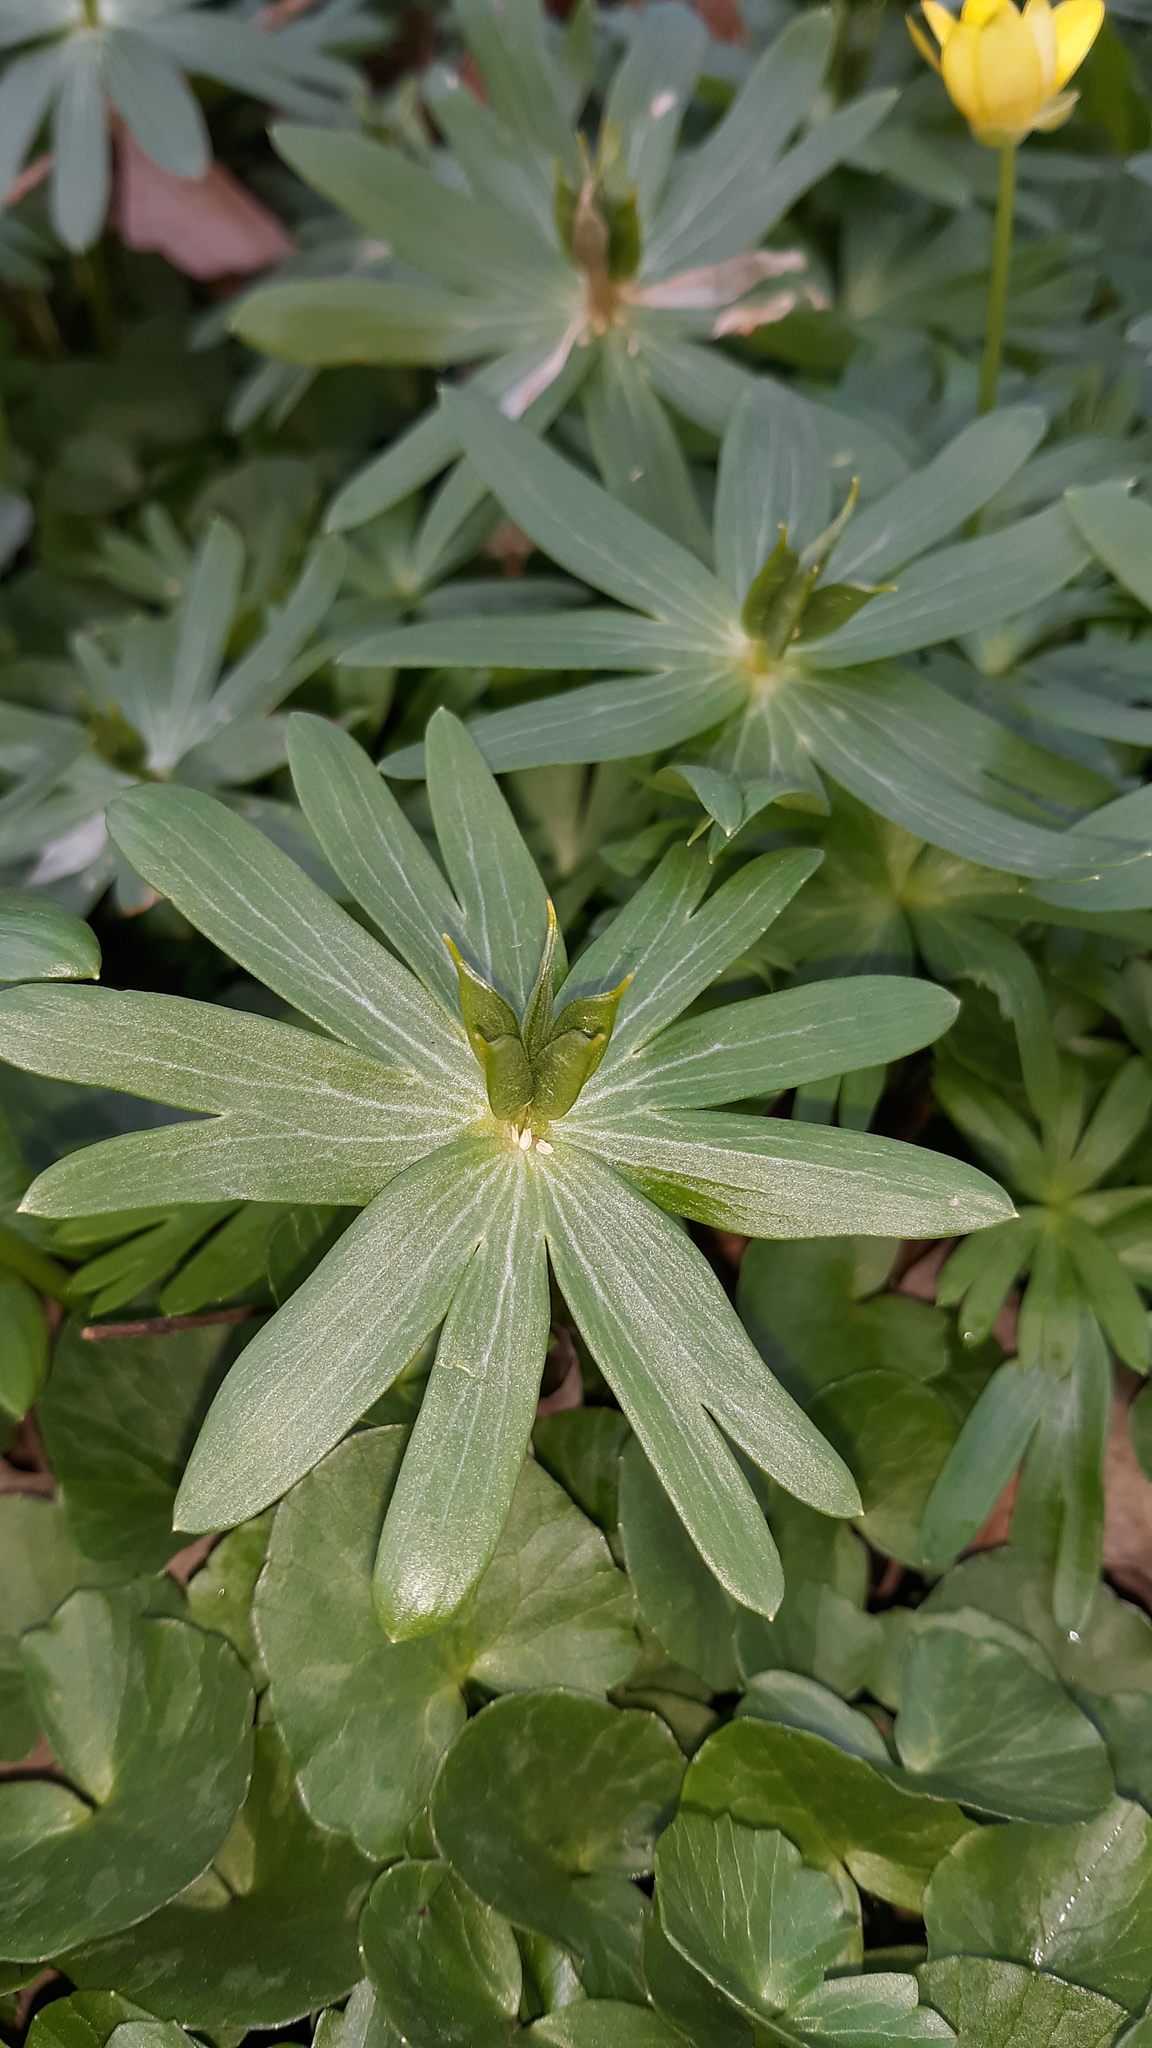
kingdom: Plantae
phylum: Tracheophyta
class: Magnoliopsida
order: Ranunculales
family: Ranunculaceae
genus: Eranthis
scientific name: Eranthis hyemalis
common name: Winter aconite
